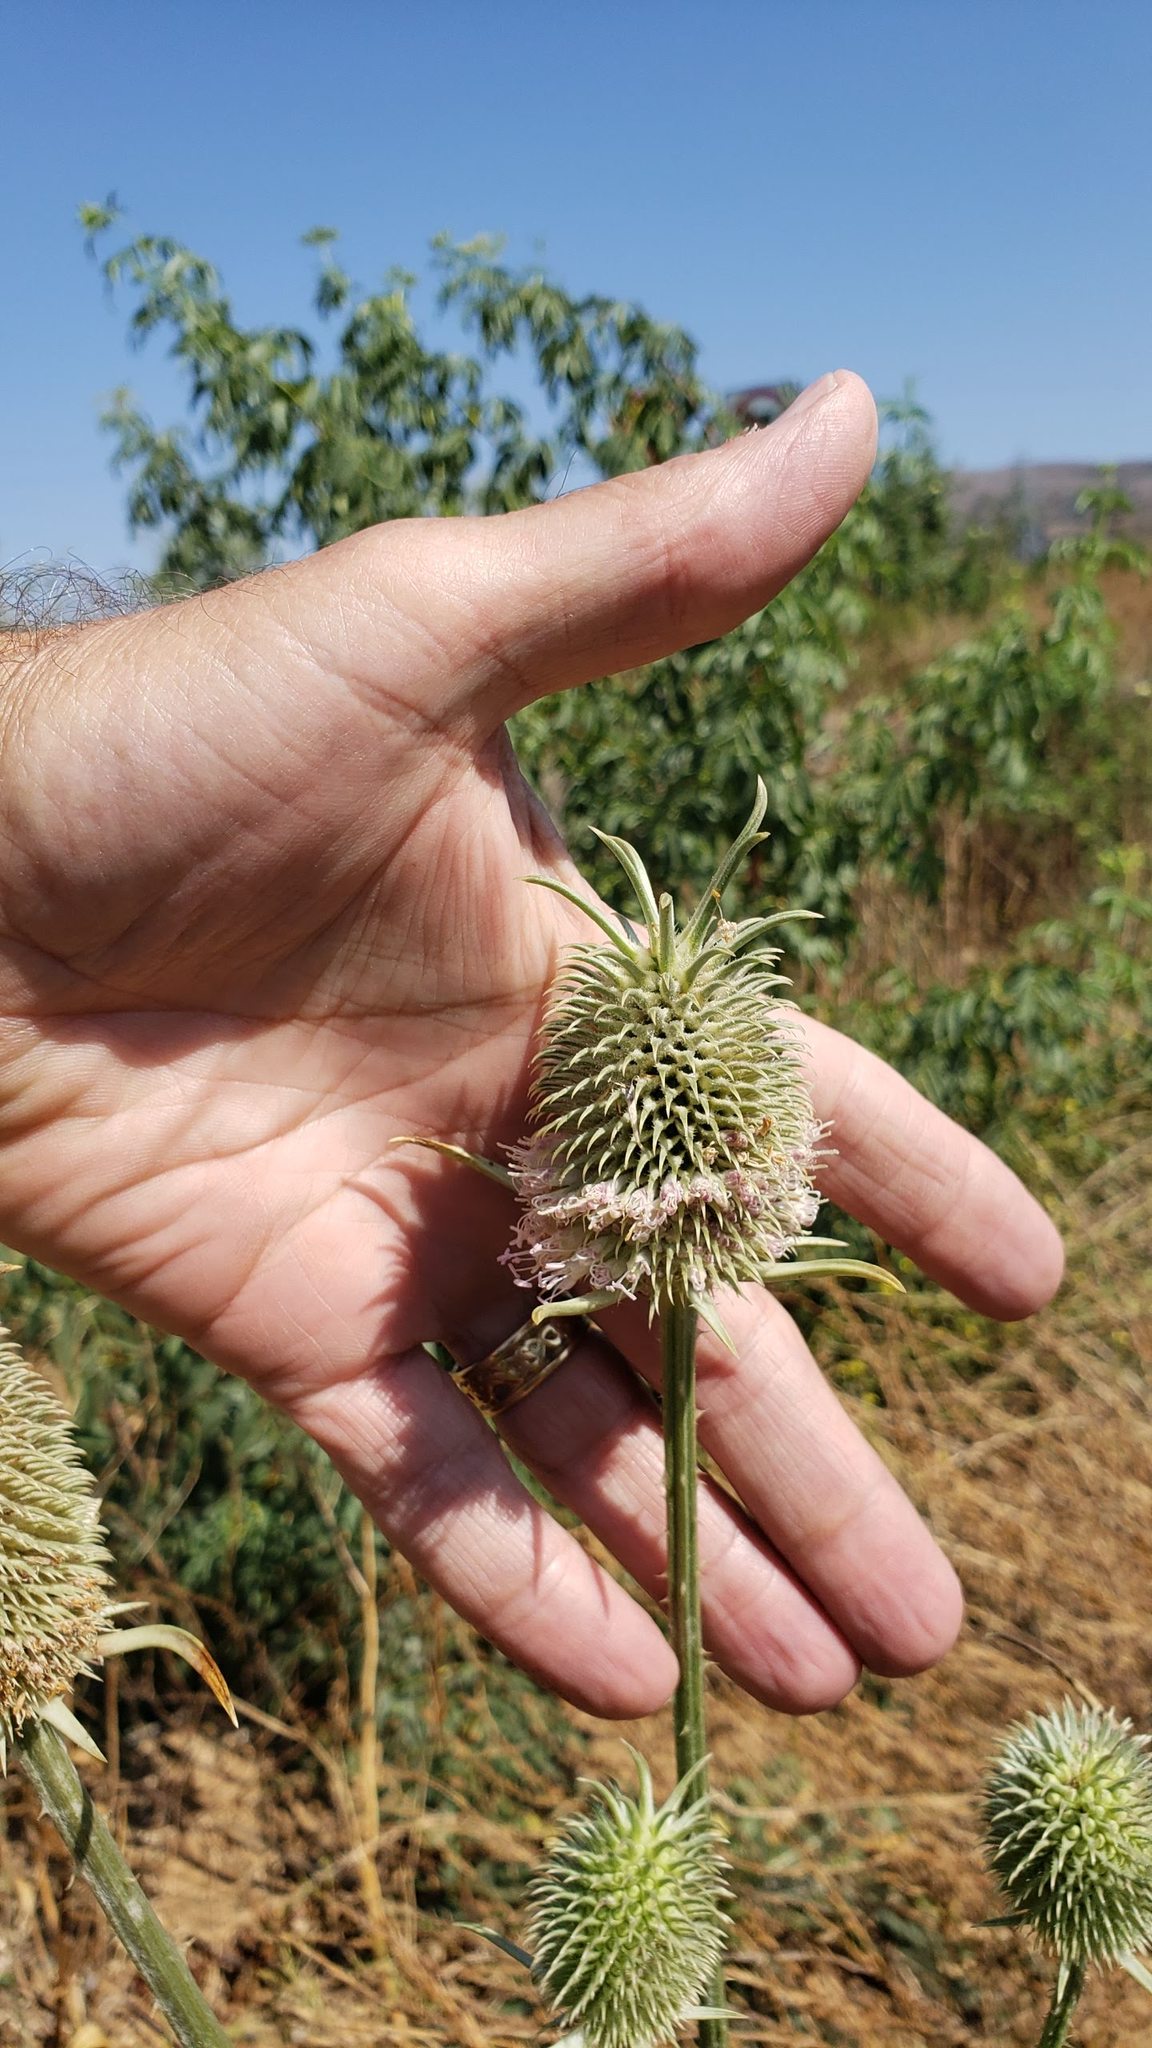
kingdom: Plantae
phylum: Tracheophyta
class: Magnoliopsida
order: Dipsacales
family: Caprifoliaceae
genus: Dipsacus
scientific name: Dipsacus sativus
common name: Fuller's teasel
